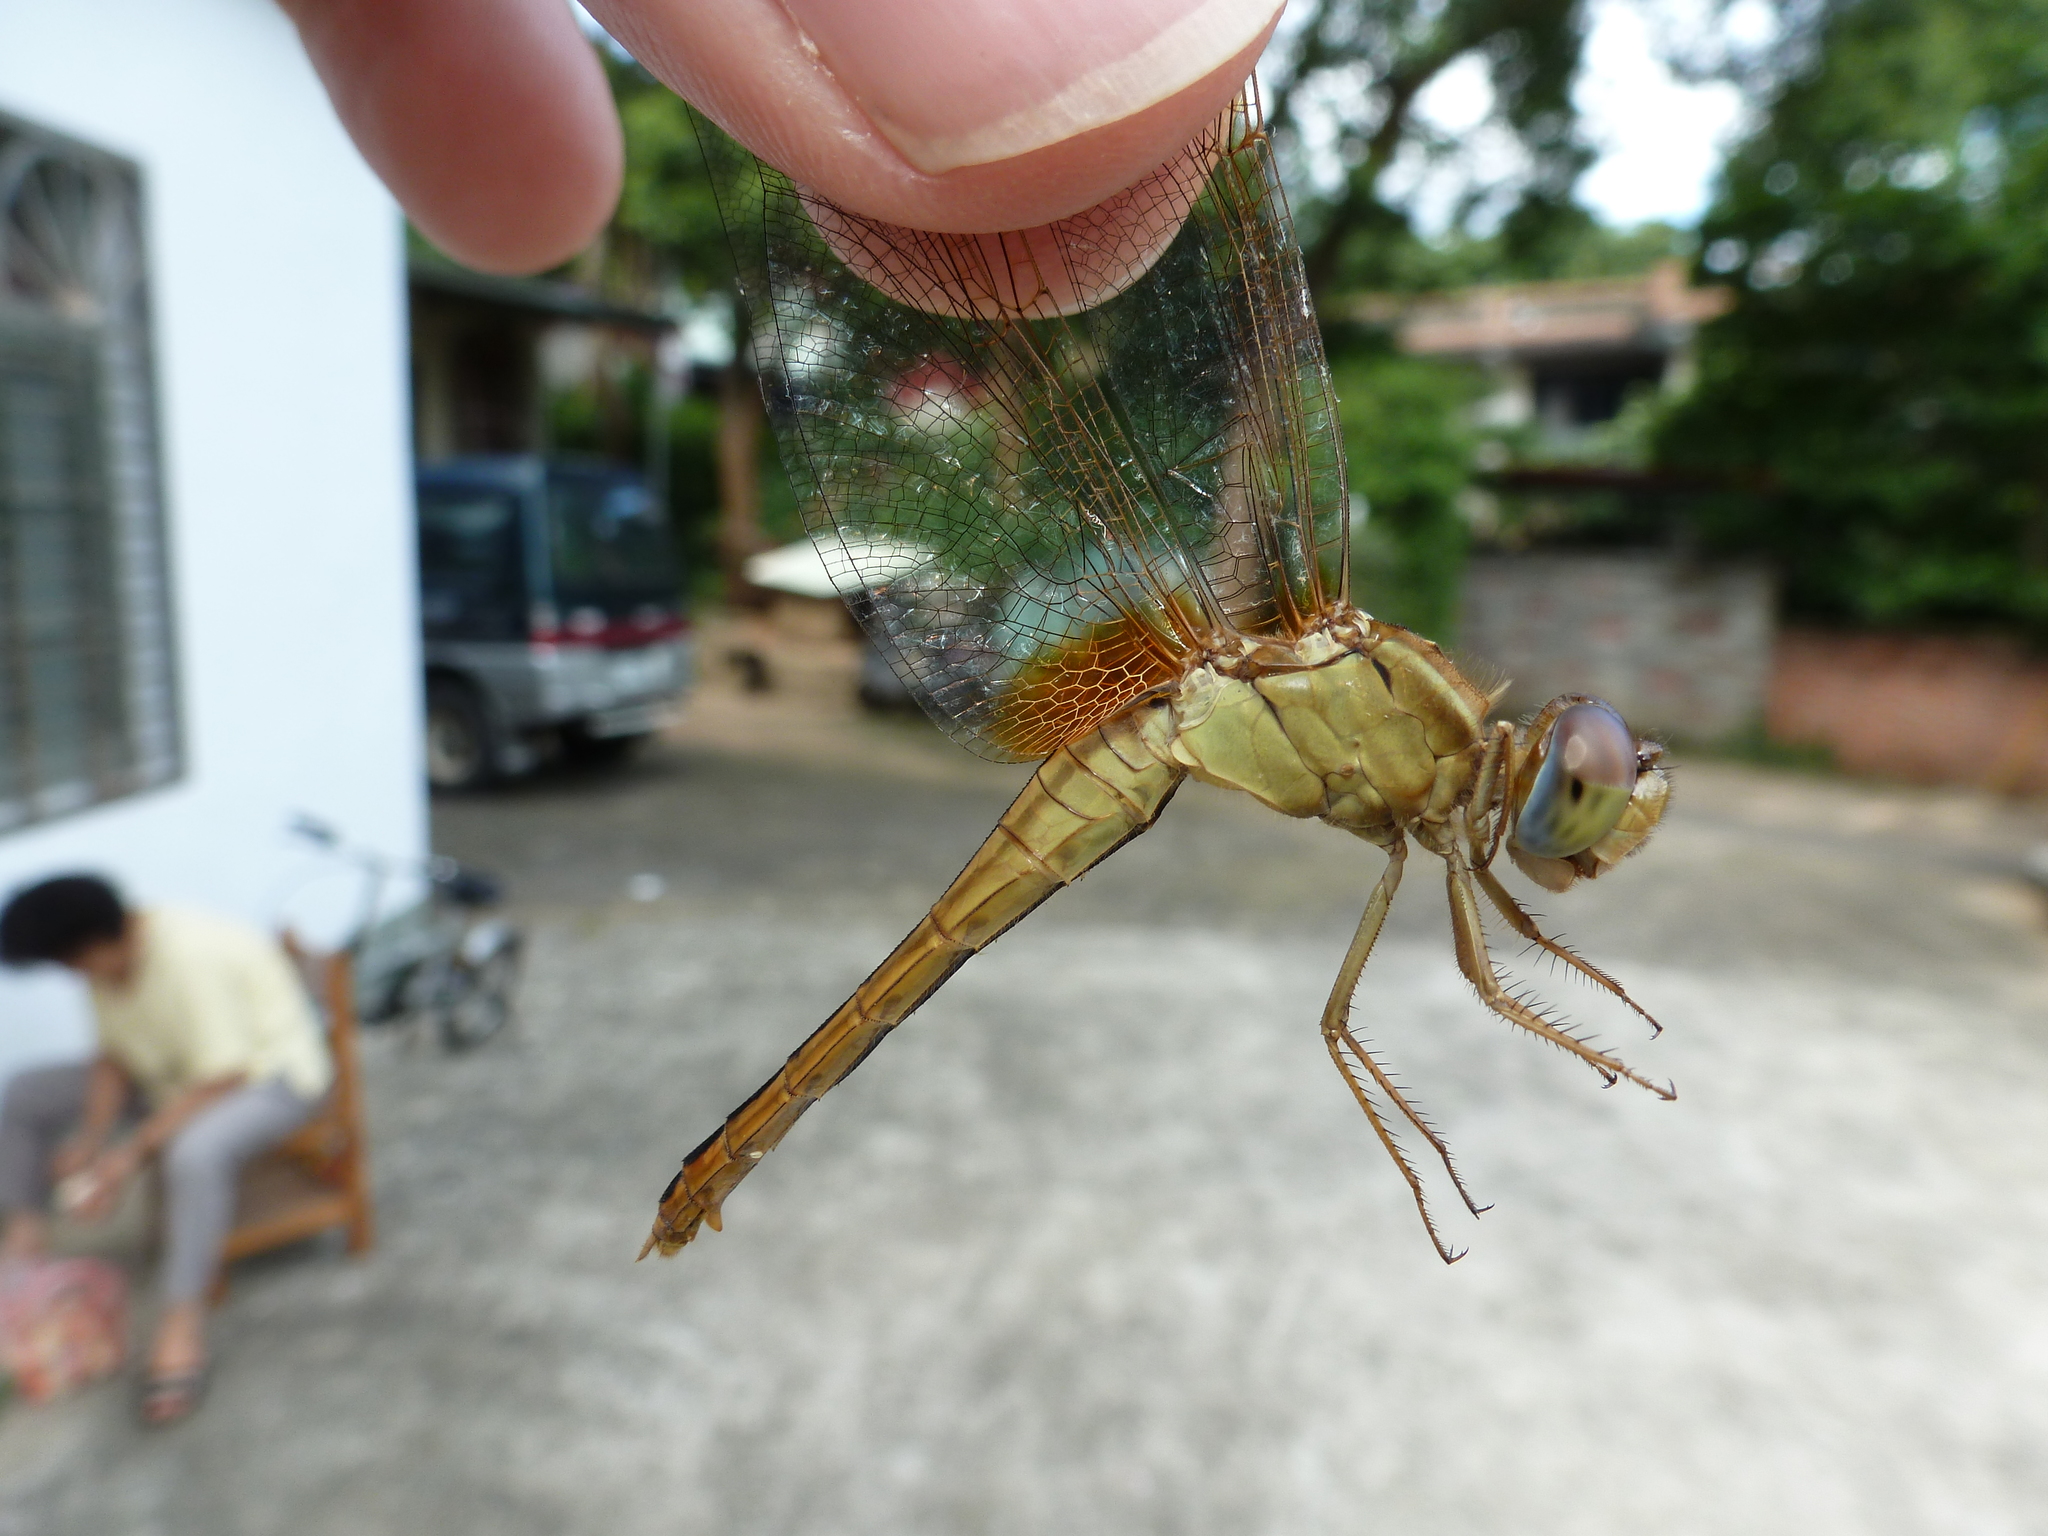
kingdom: Animalia
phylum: Arthropoda
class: Insecta
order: Odonata
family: Libellulidae
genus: Crocothemis
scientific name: Crocothemis servilia
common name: Scarlet skimmer
